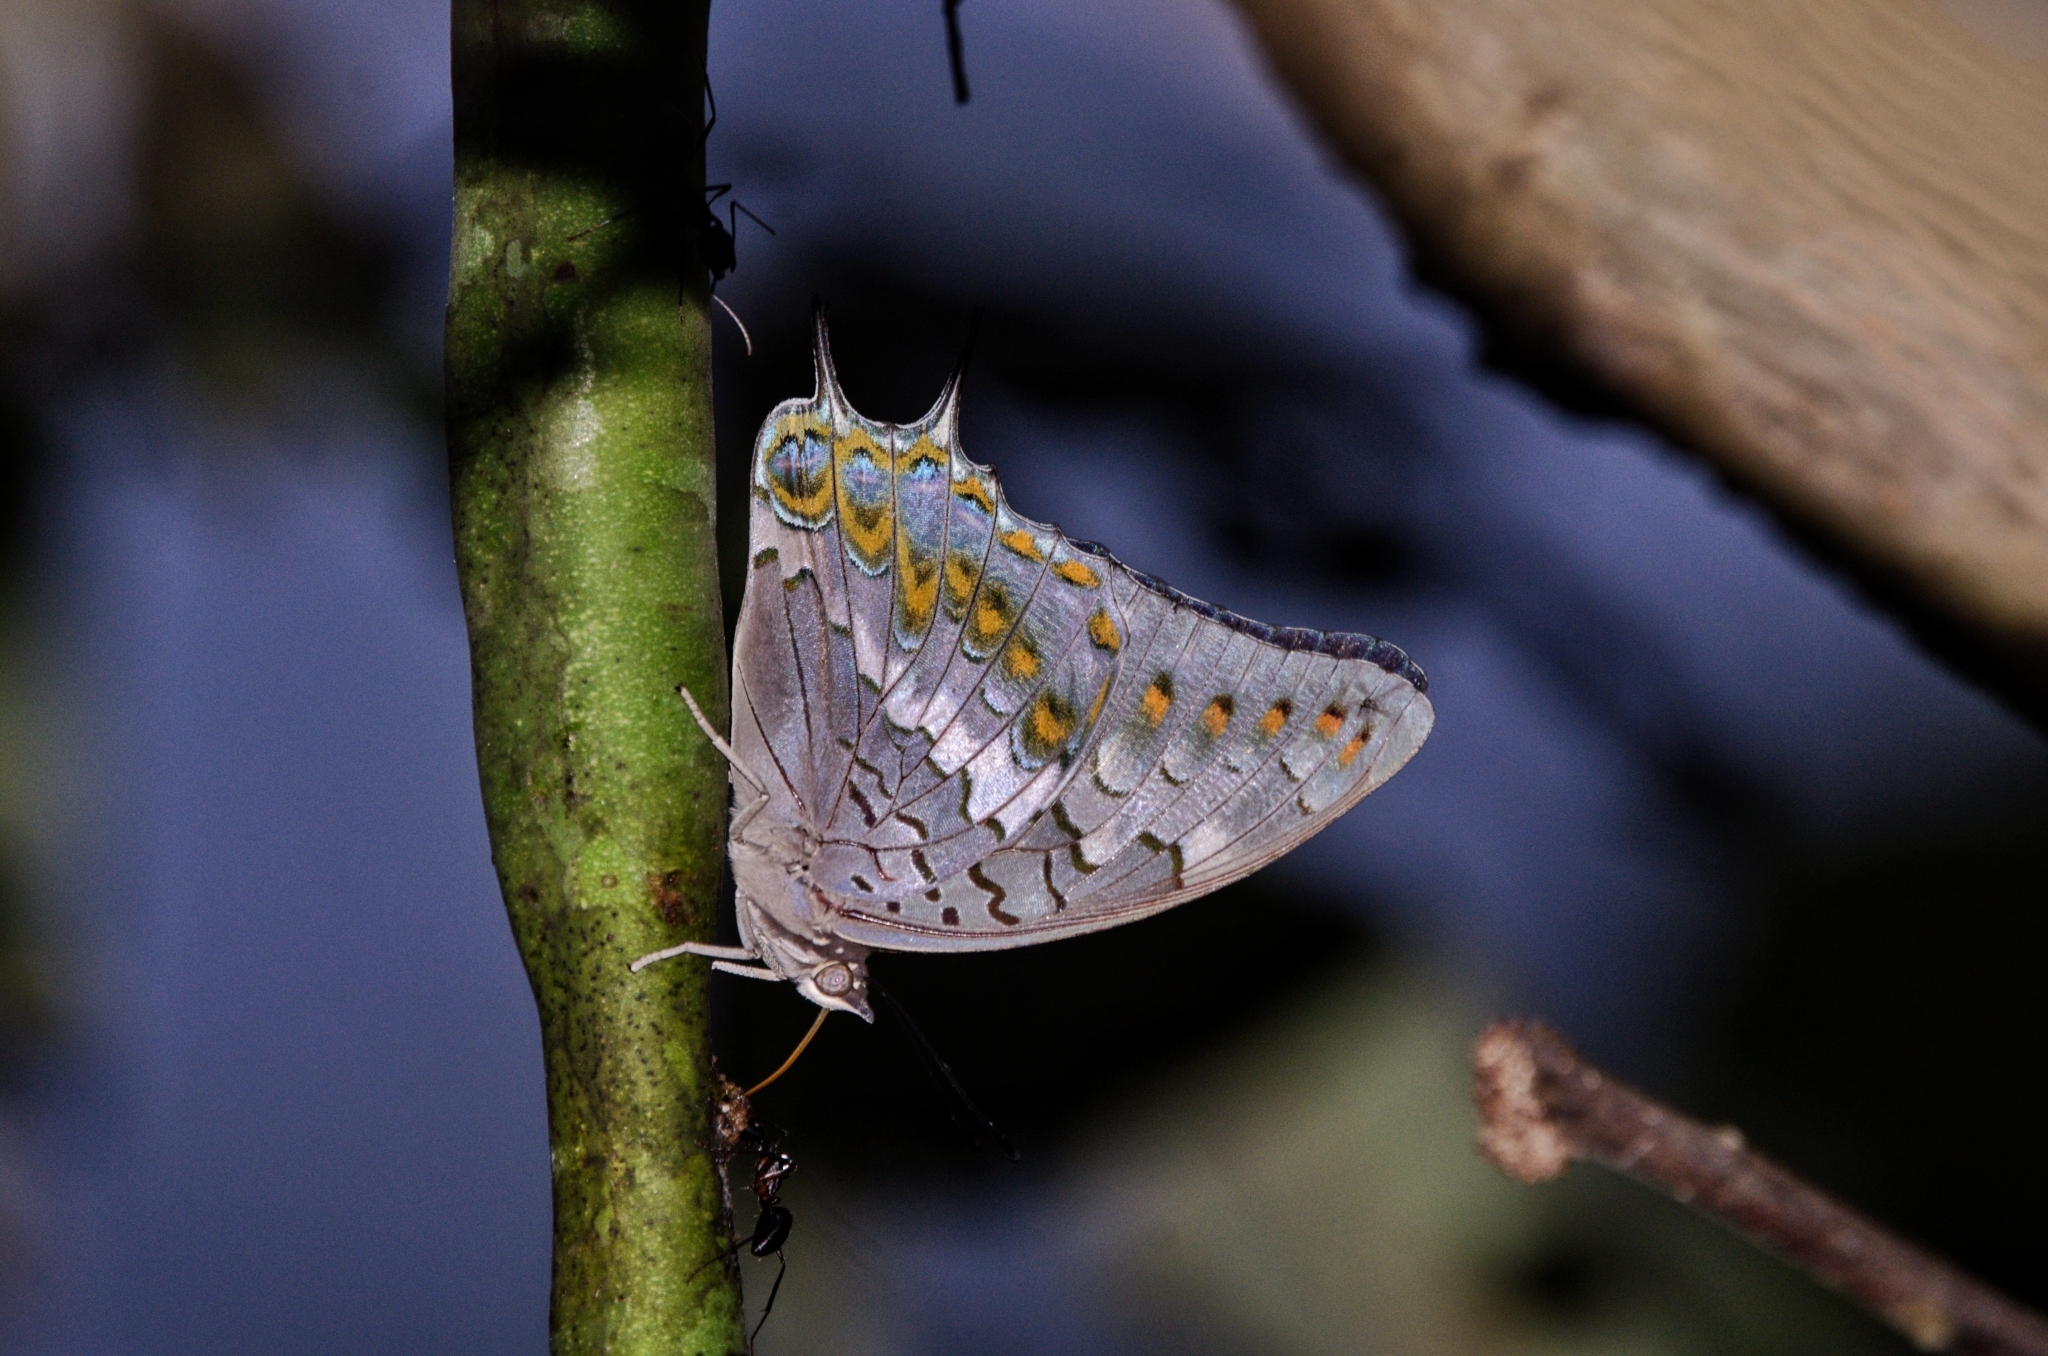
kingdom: Animalia
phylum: Arthropoda
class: Insecta
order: Lepidoptera
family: Nymphalidae
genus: Charaxes
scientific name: Charaxes solon
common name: Black rajah
